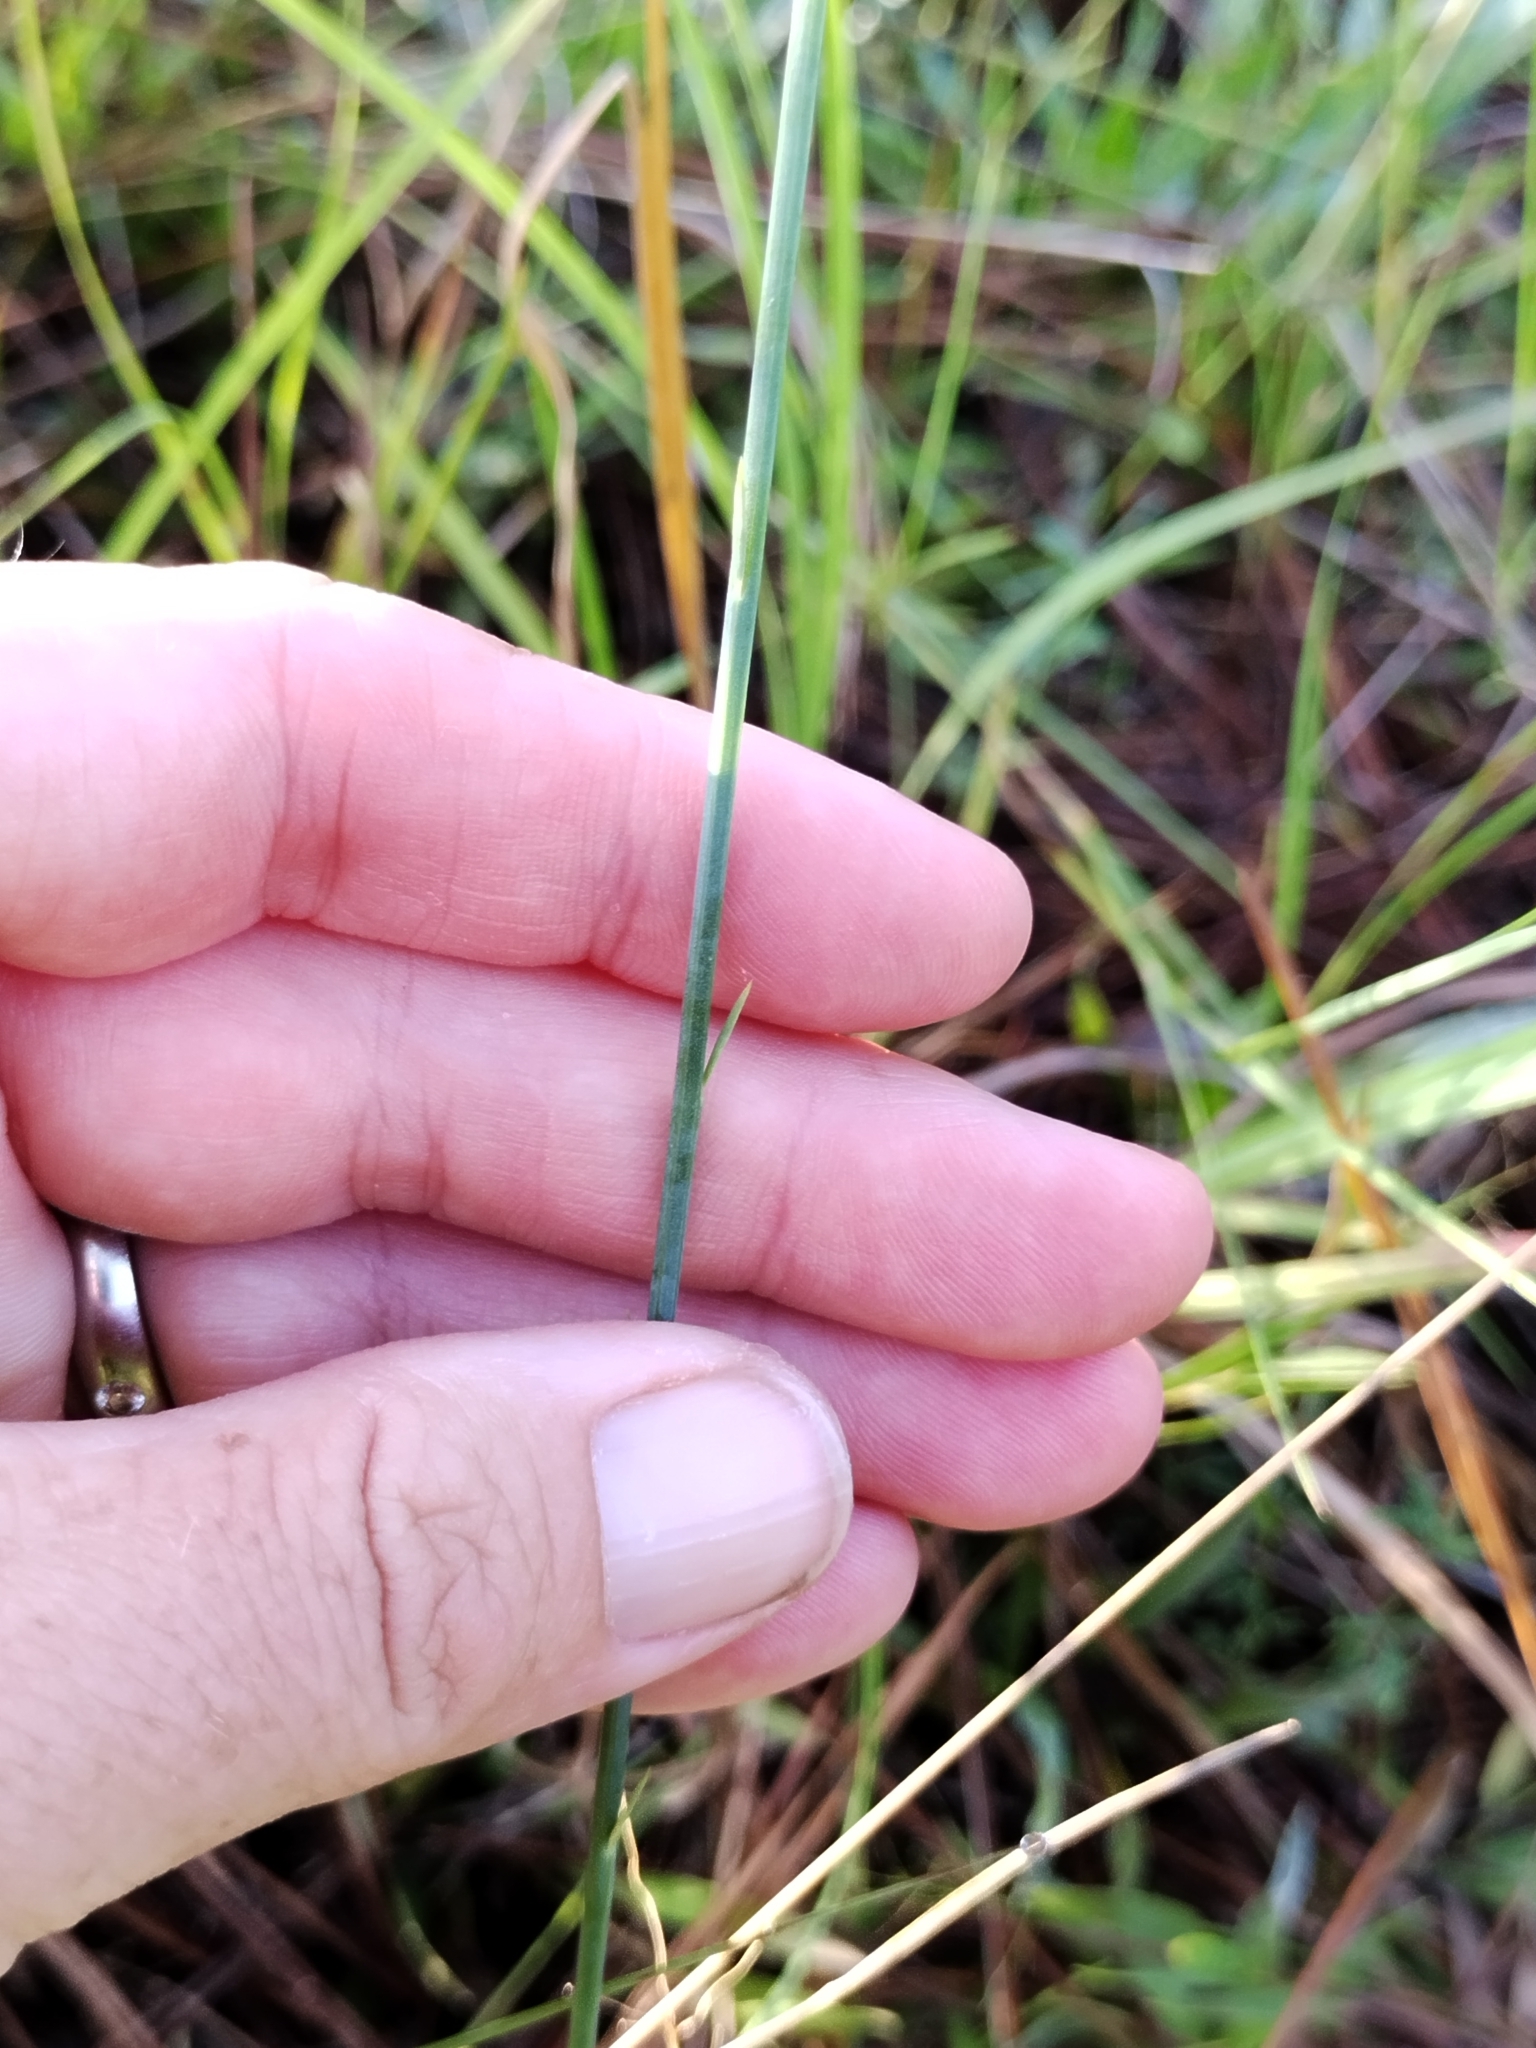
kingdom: Plantae
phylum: Tracheophyta
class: Magnoliopsida
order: Fabales
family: Polygalaceae
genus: Polygala
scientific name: Polygala incarnata
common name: Pink milkwort
